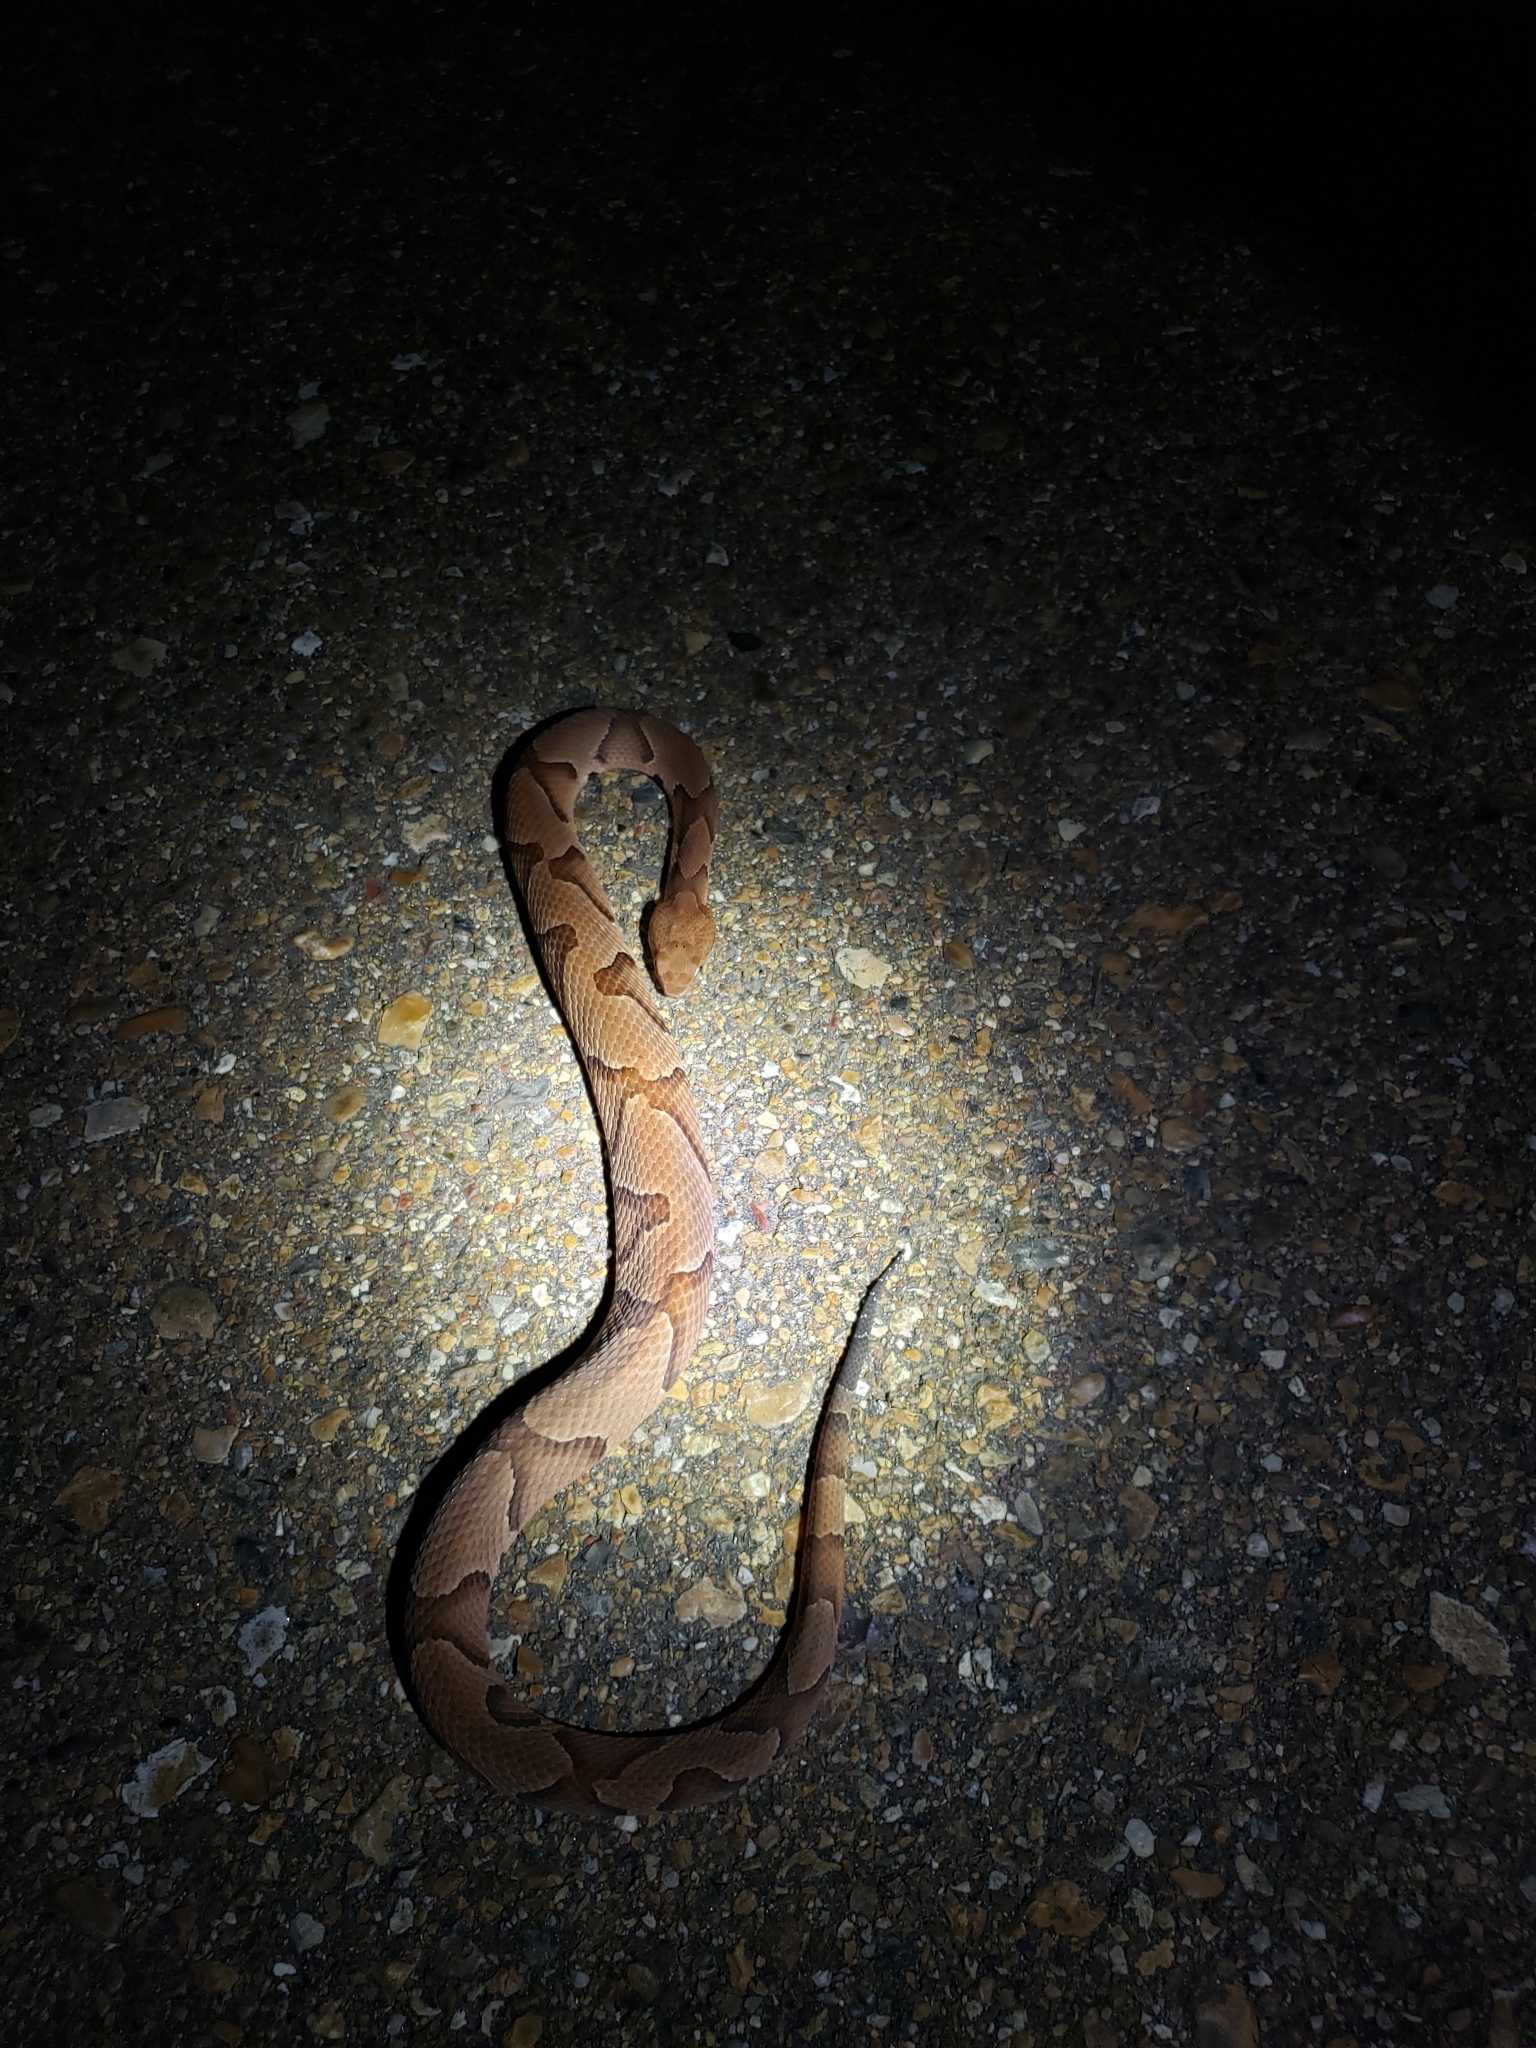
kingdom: Animalia
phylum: Chordata
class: Squamata
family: Viperidae
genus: Agkistrodon
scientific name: Agkistrodon contortrix
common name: Northern copperhead
